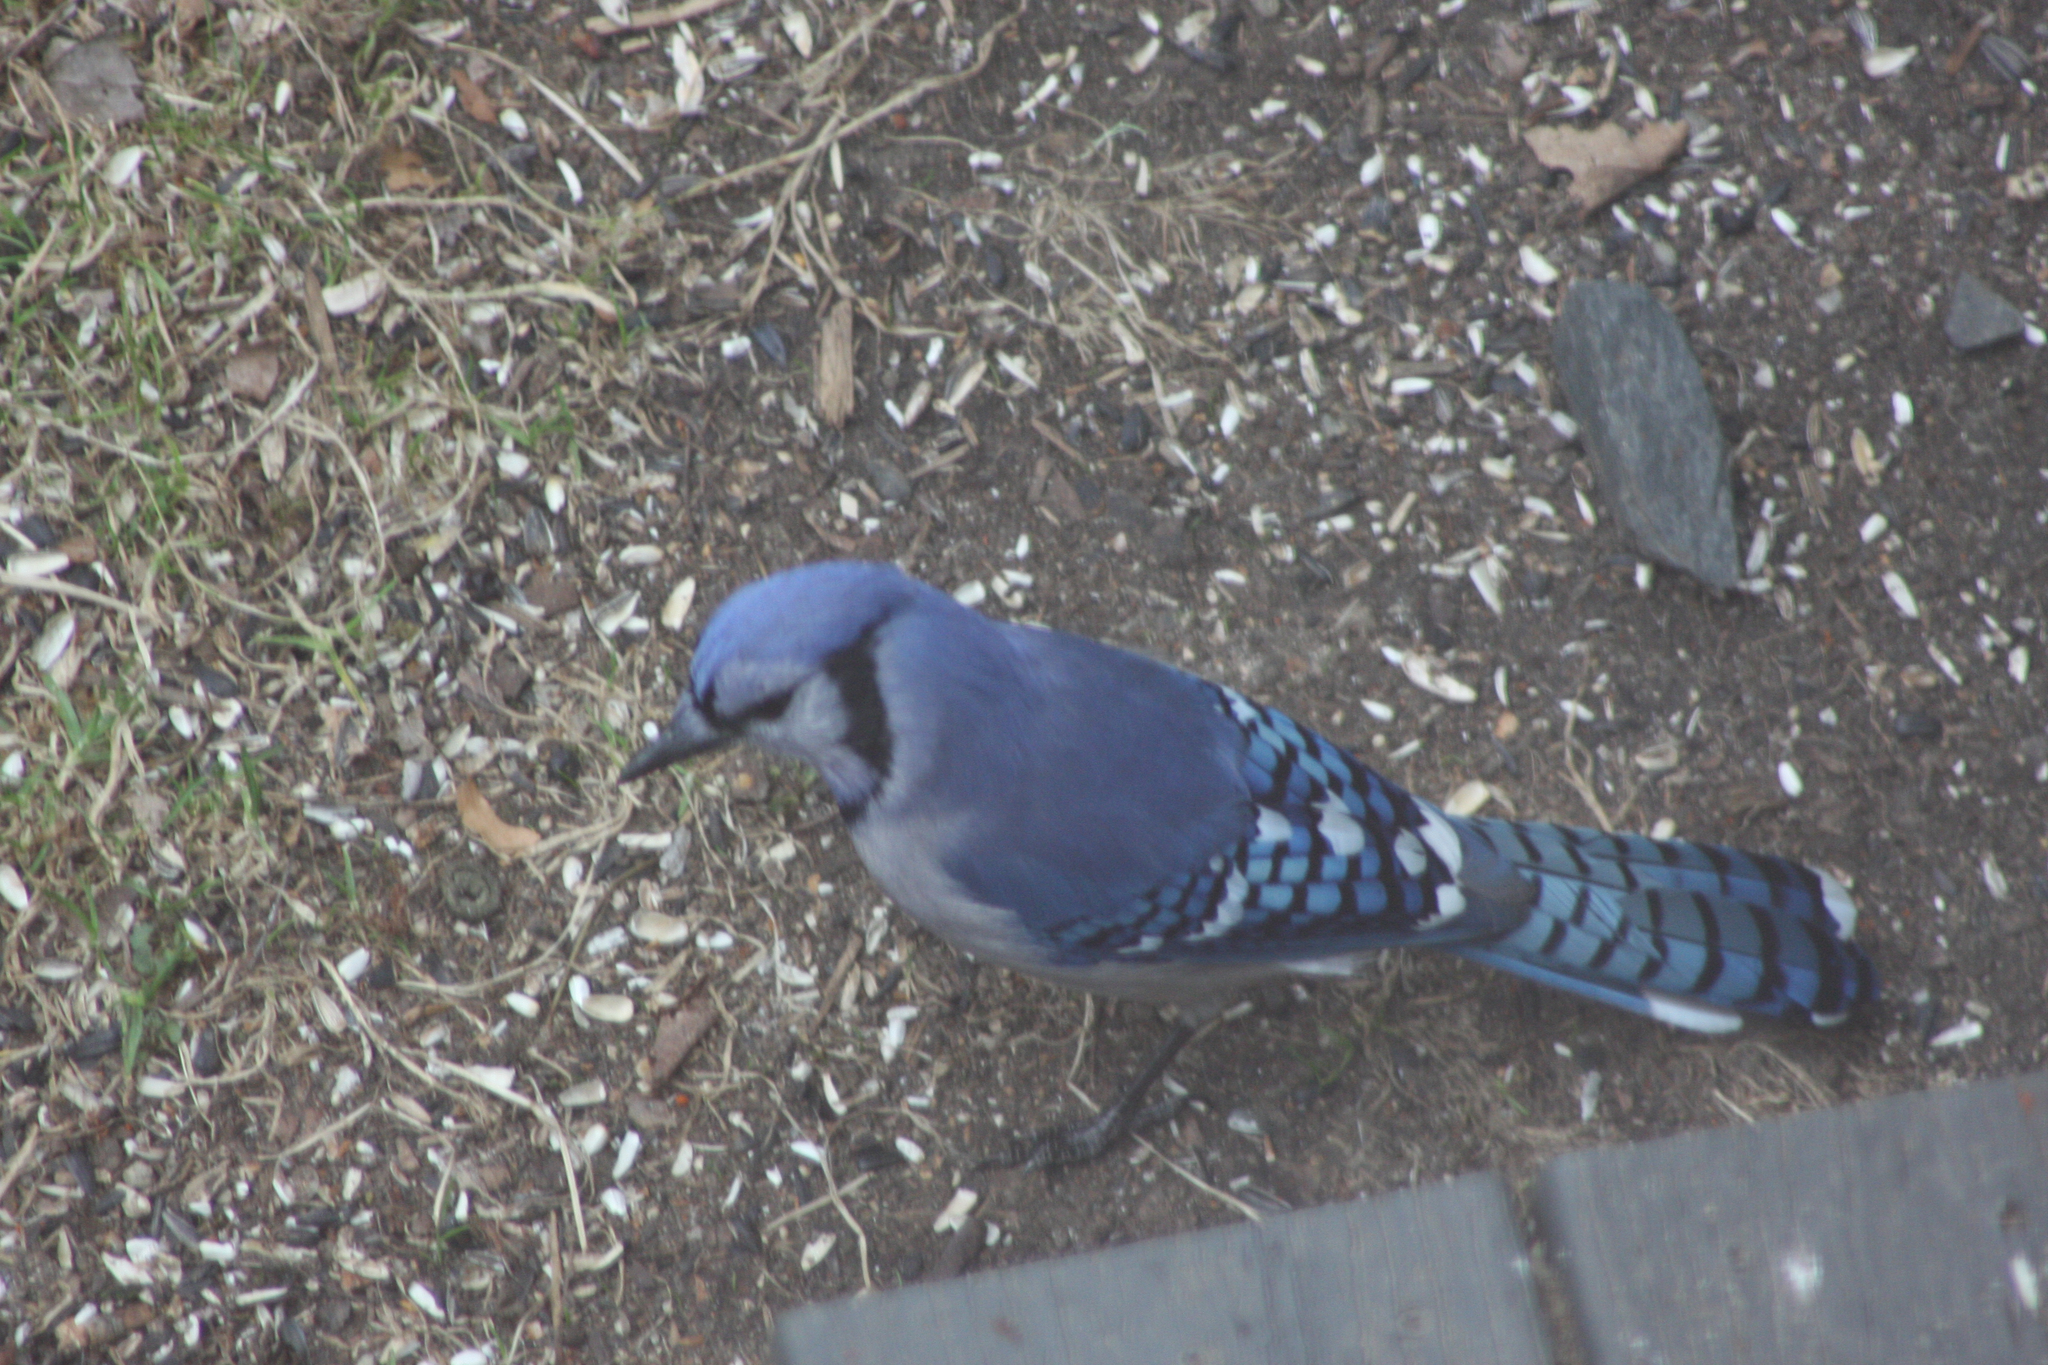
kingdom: Animalia
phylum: Chordata
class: Aves
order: Passeriformes
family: Corvidae
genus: Cyanocitta
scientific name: Cyanocitta cristata
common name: Blue jay
